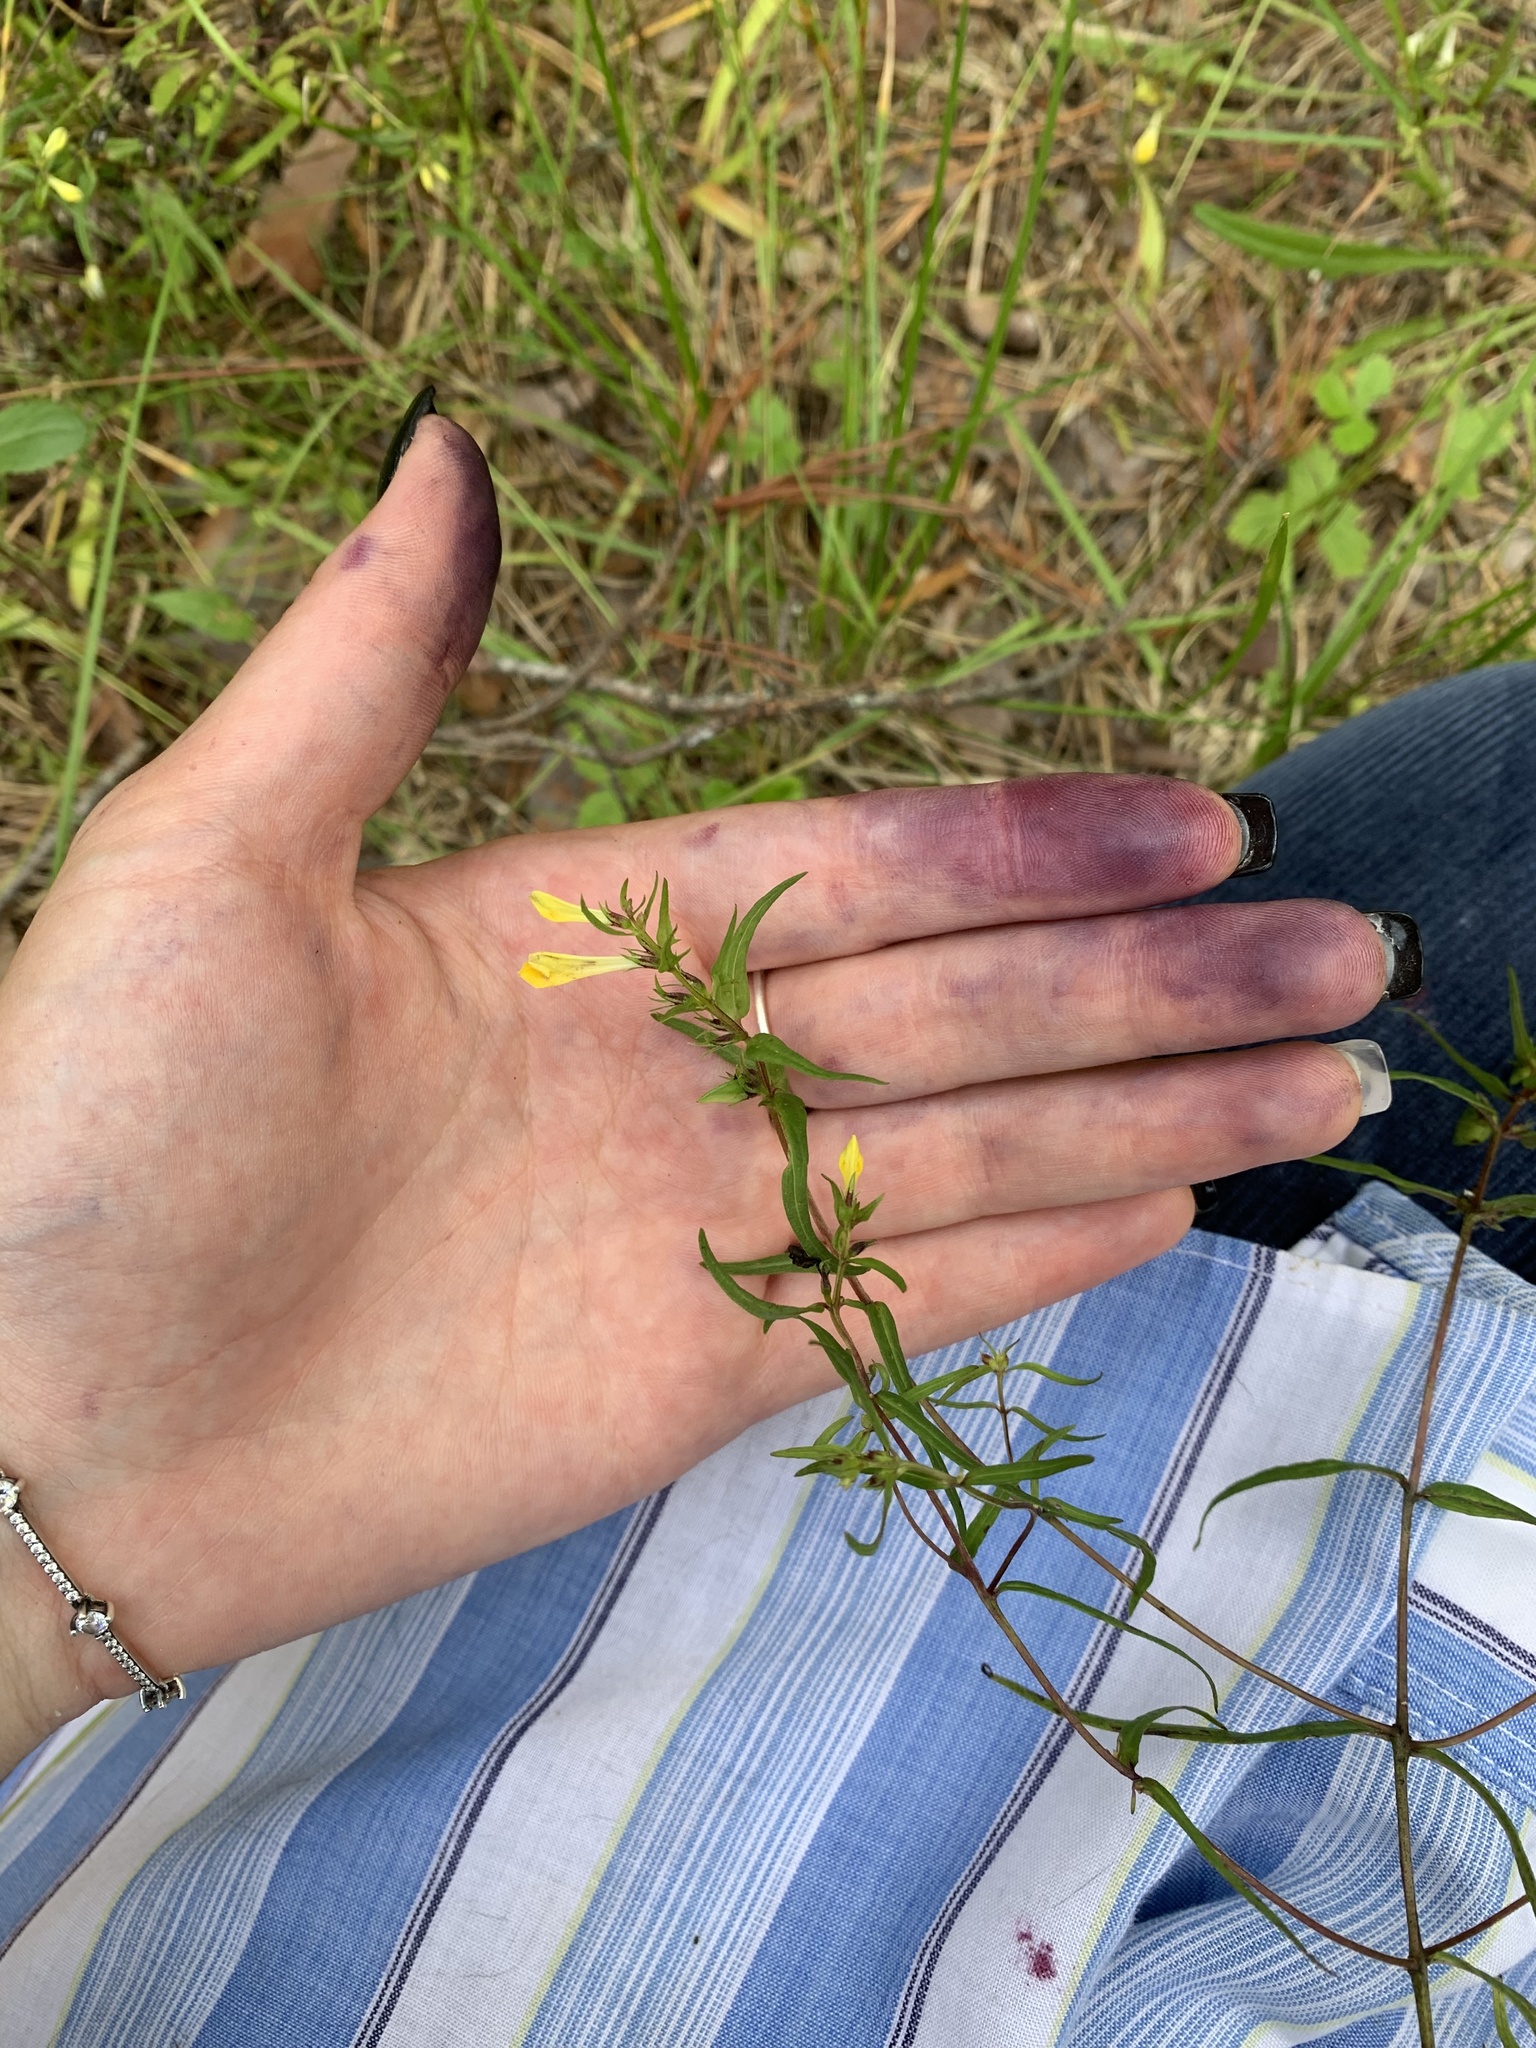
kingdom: Plantae
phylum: Tracheophyta
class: Magnoliopsida
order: Lamiales
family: Orobanchaceae
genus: Melampyrum
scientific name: Melampyrum pratense
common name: Common cow-wheat
